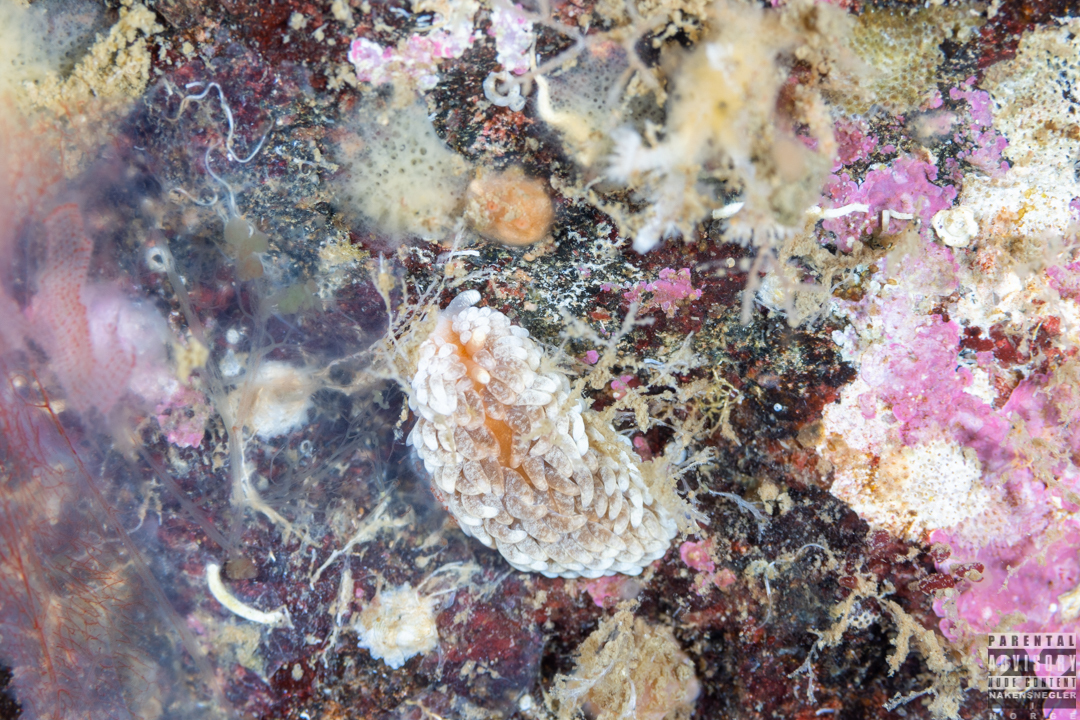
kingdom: Animalia
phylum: Mollusca
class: Gastropoda
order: Nudibranchia
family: Aeolidiidae
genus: Aeolidiella
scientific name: Aeolidiella glauca
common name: Orange-brown aeolid
